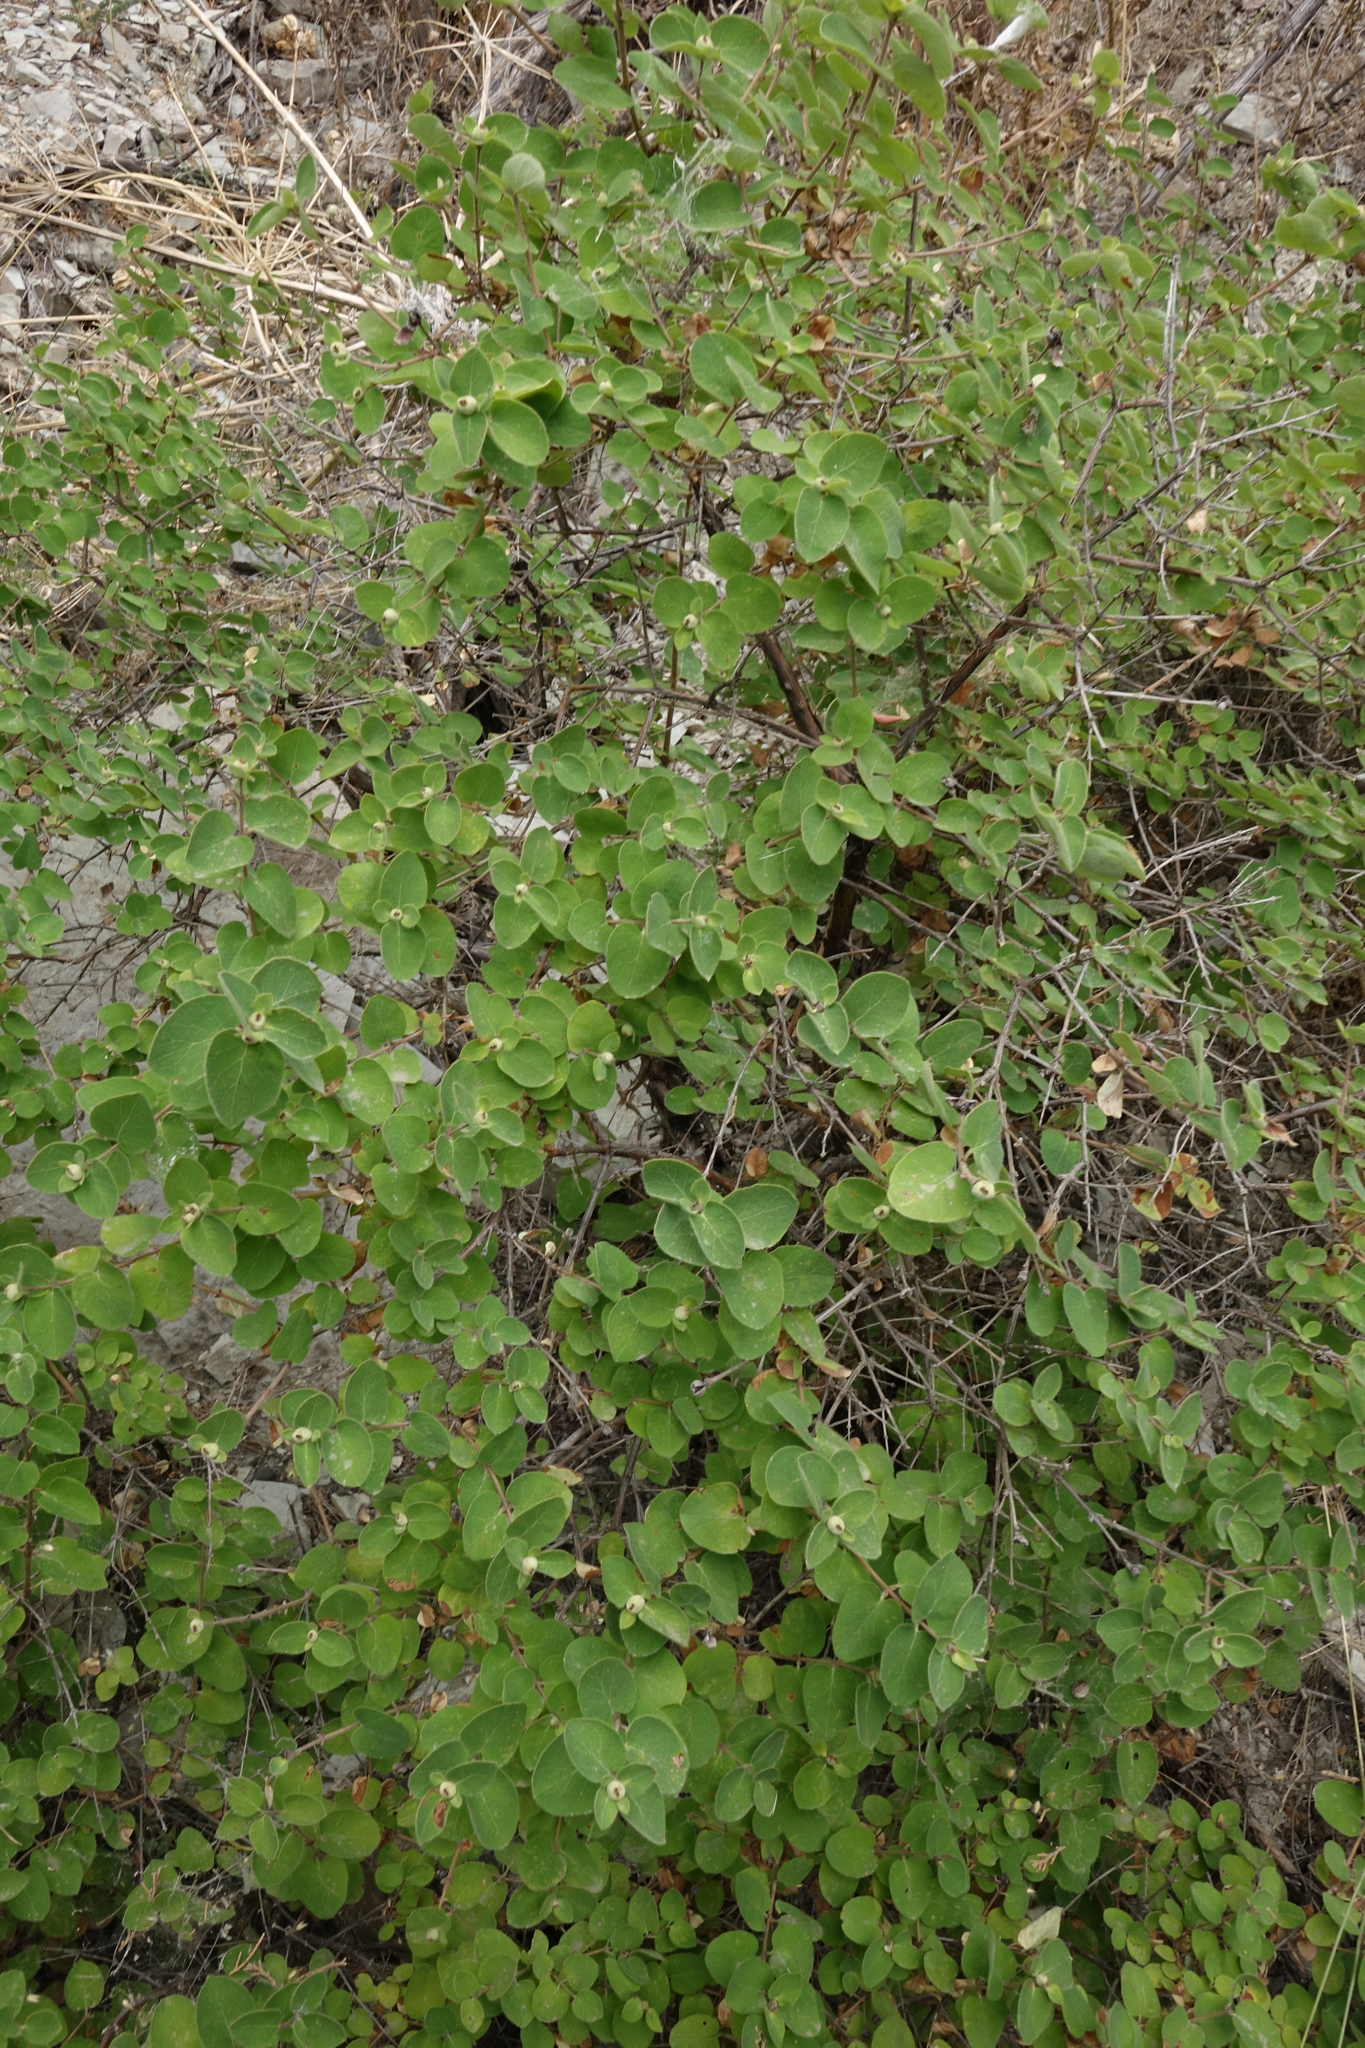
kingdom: Plantae
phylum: Tracheophyta
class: Magnoliopsida
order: Dipsacales
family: Caprifoliaceae
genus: Lonicera
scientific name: Lonicera iberica
